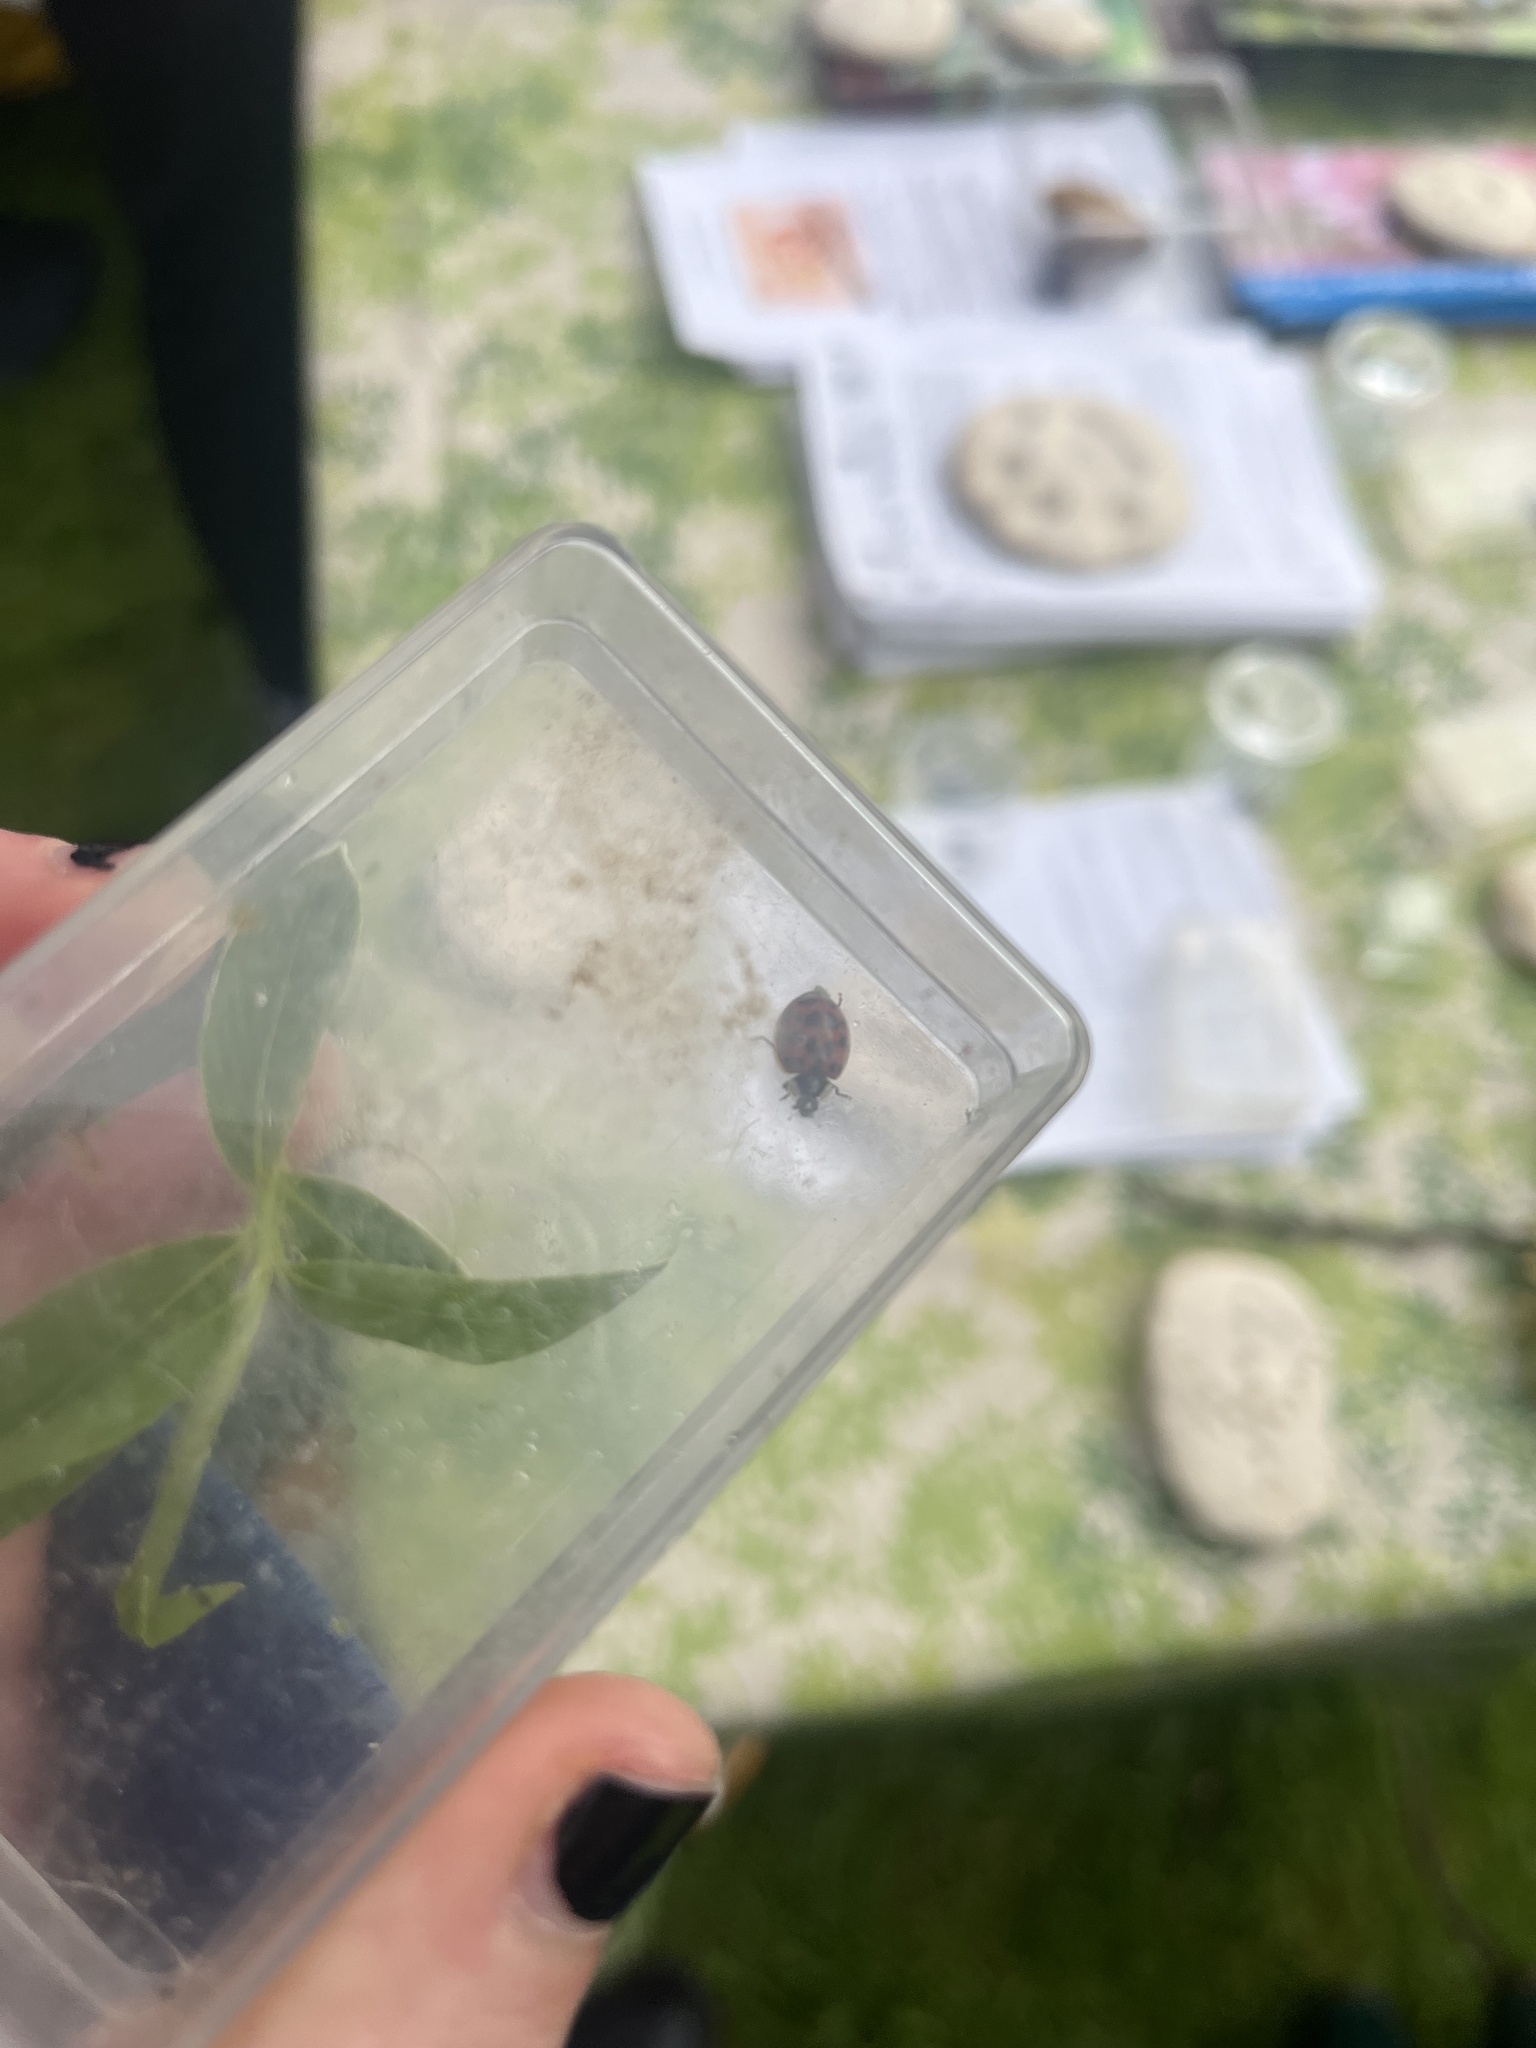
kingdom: Animalia
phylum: Arthropoda
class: Insecta
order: Coleoptera
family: Coccinellidae
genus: Harmonia
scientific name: Harmonia axyridis
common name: Harlequin ladybird
